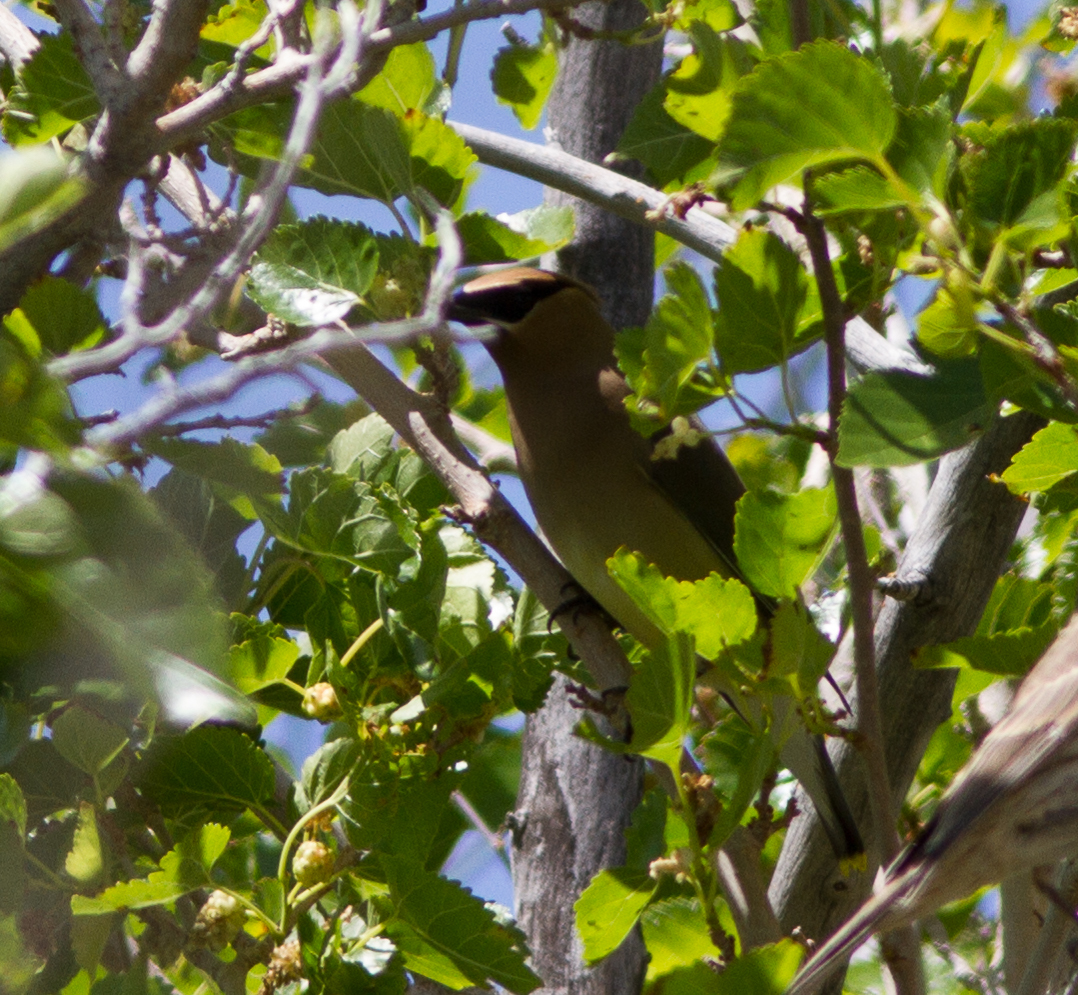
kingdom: Animalia
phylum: Chordata
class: Aves
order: Passeriformes
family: Bombycillidae
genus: Bombycilla
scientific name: Bombycilla cedrorum
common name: Cedar waxwing
